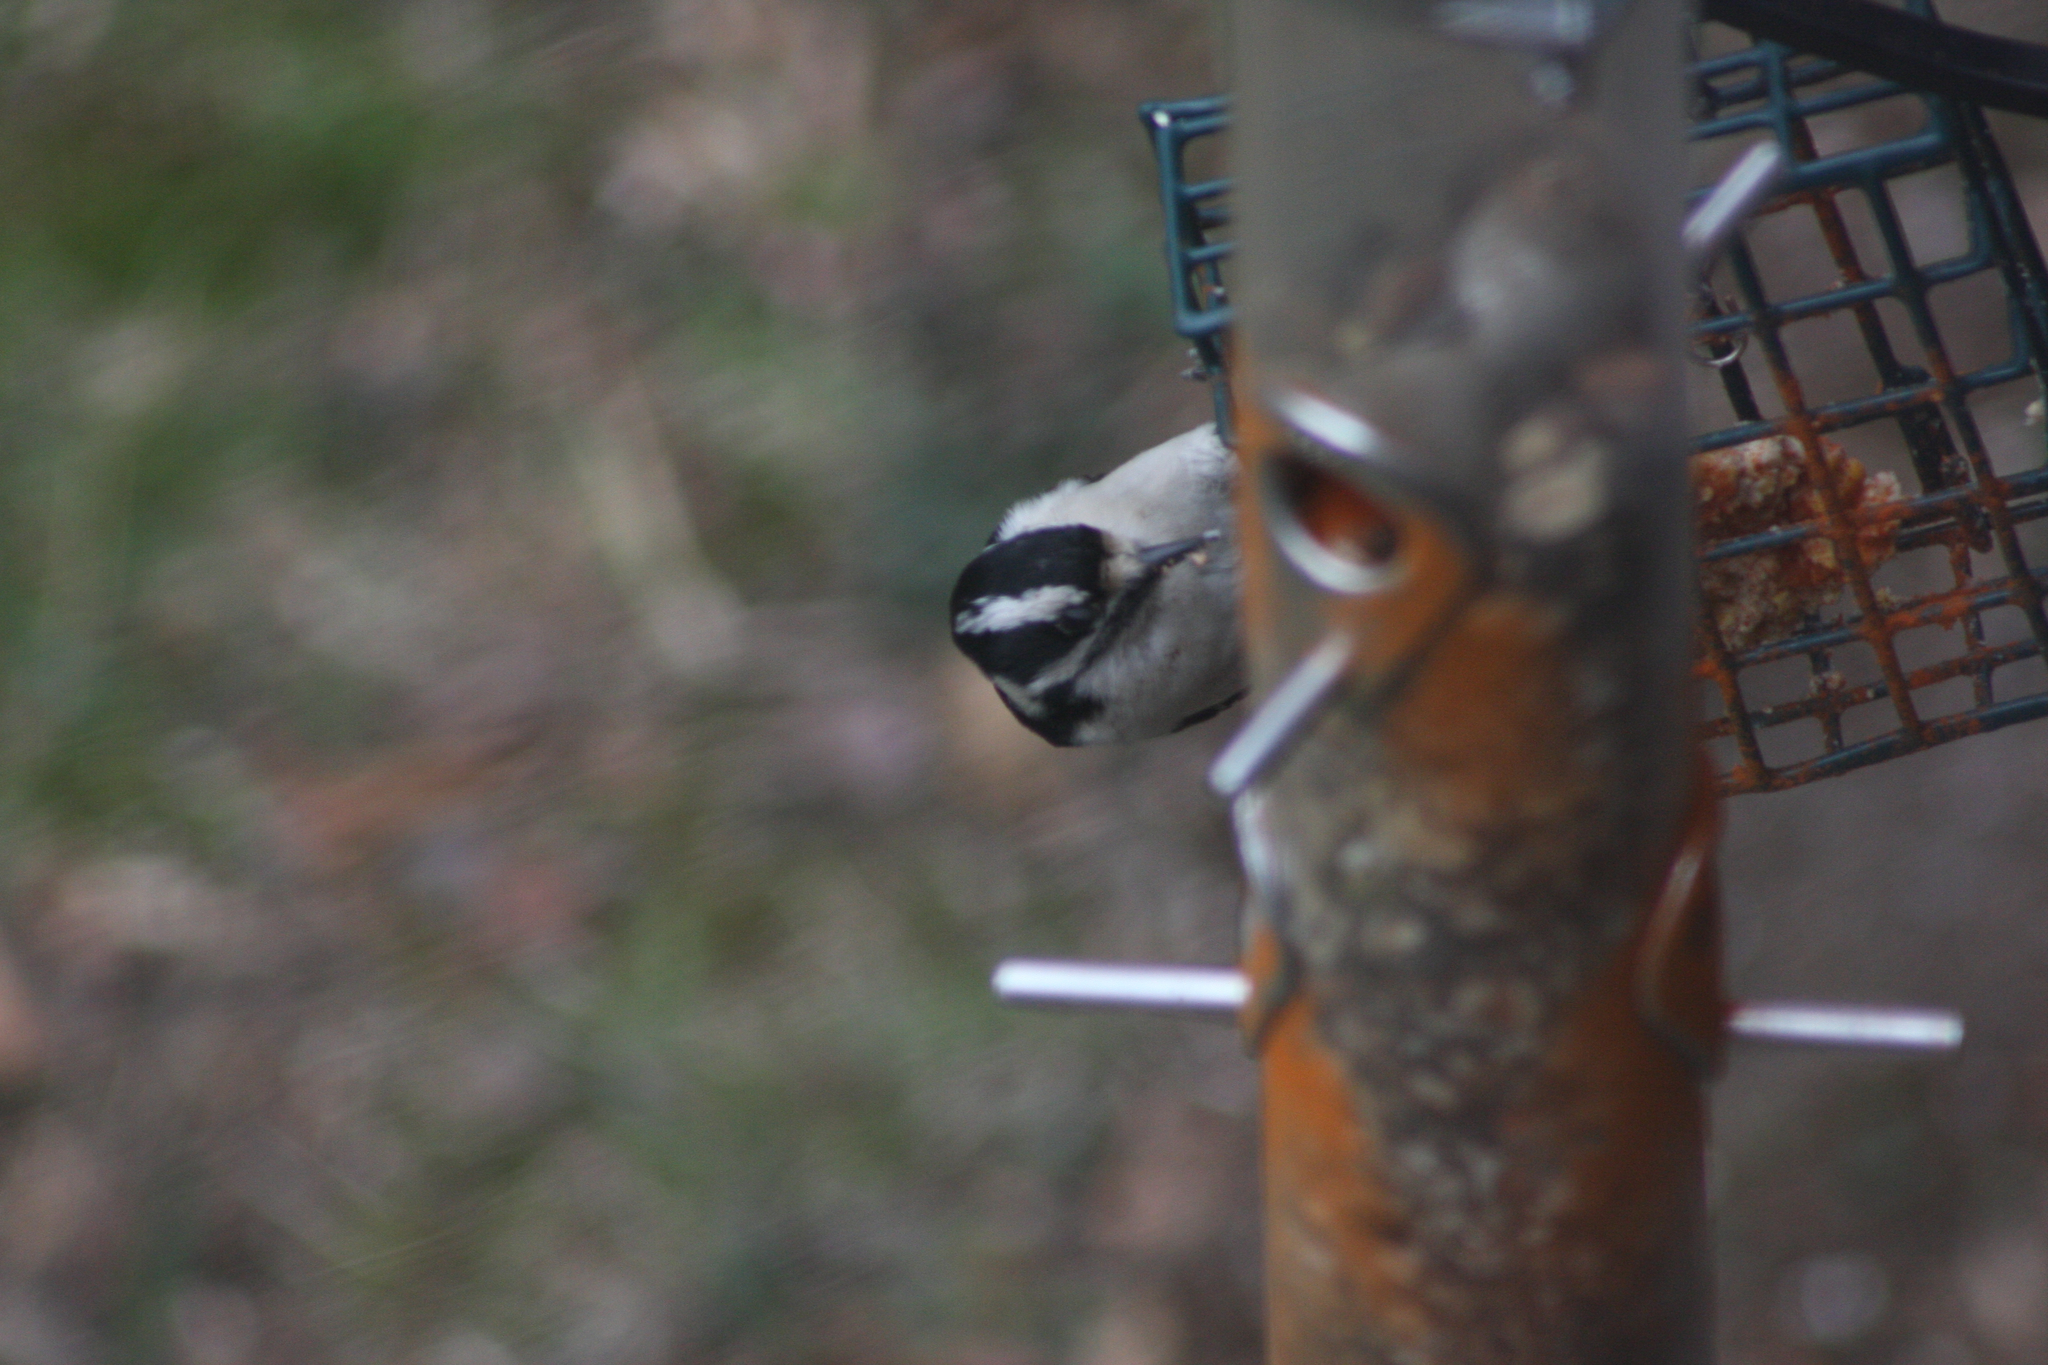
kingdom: Animalia
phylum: Chordata
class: Aves
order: Piciformes
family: Picidae
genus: Dryobates
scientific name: Dryobates pubescens
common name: Downy woodpecker
